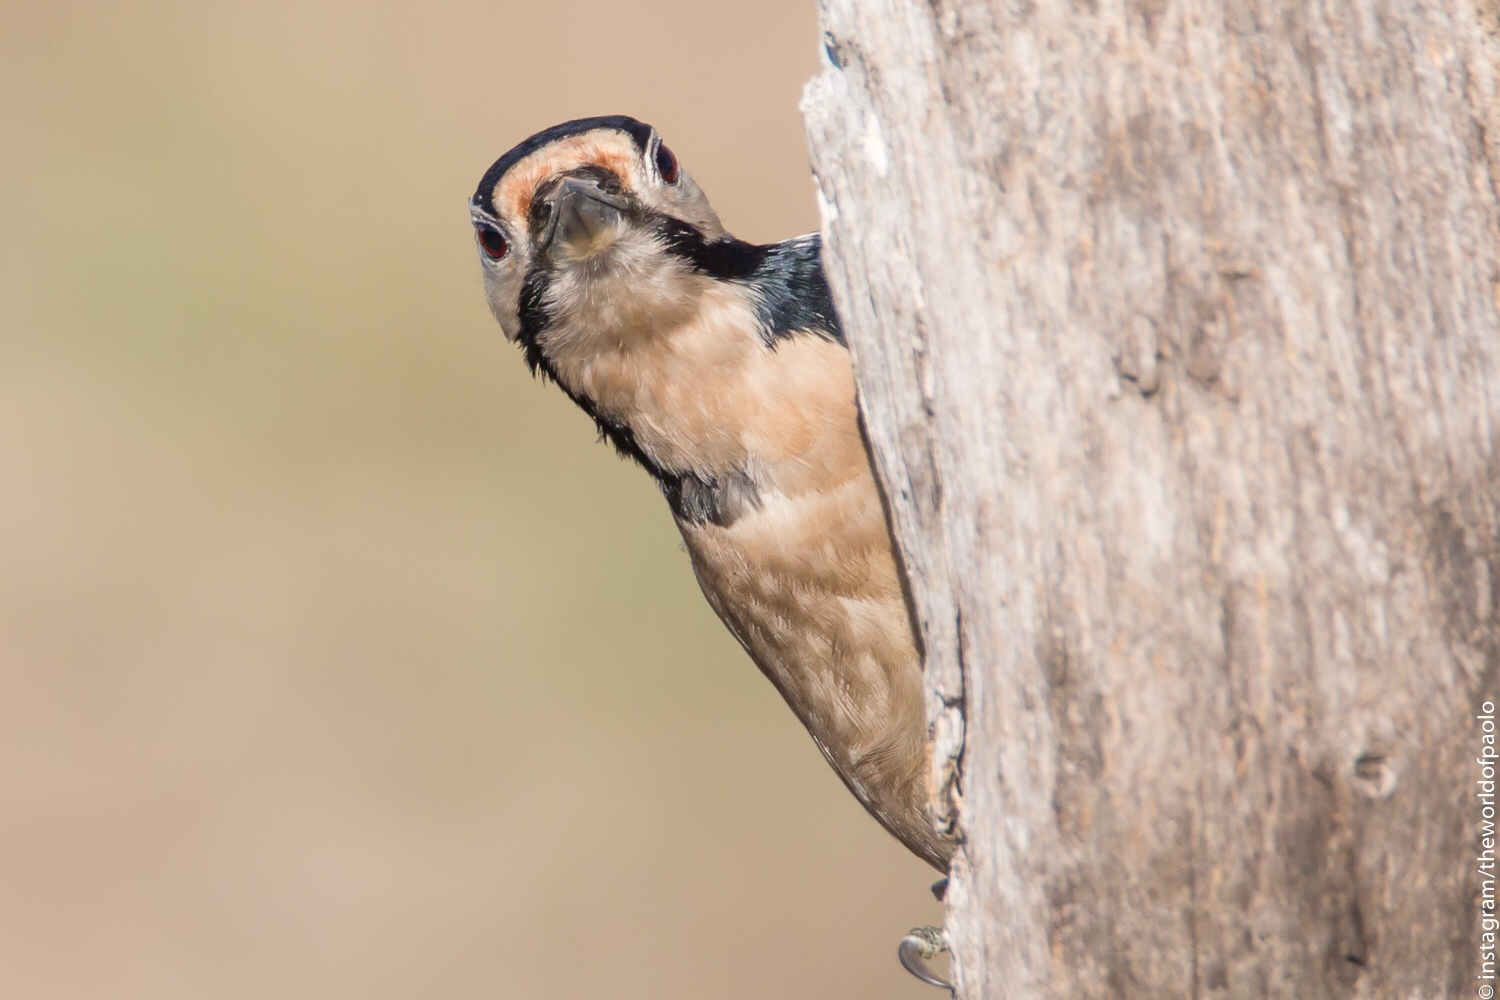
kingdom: Animalia
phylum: Chordata
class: Aves
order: Piciformes
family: Picidae
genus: Dendrocopos
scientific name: Dendrocopos major
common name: Great spotted woodpecker
